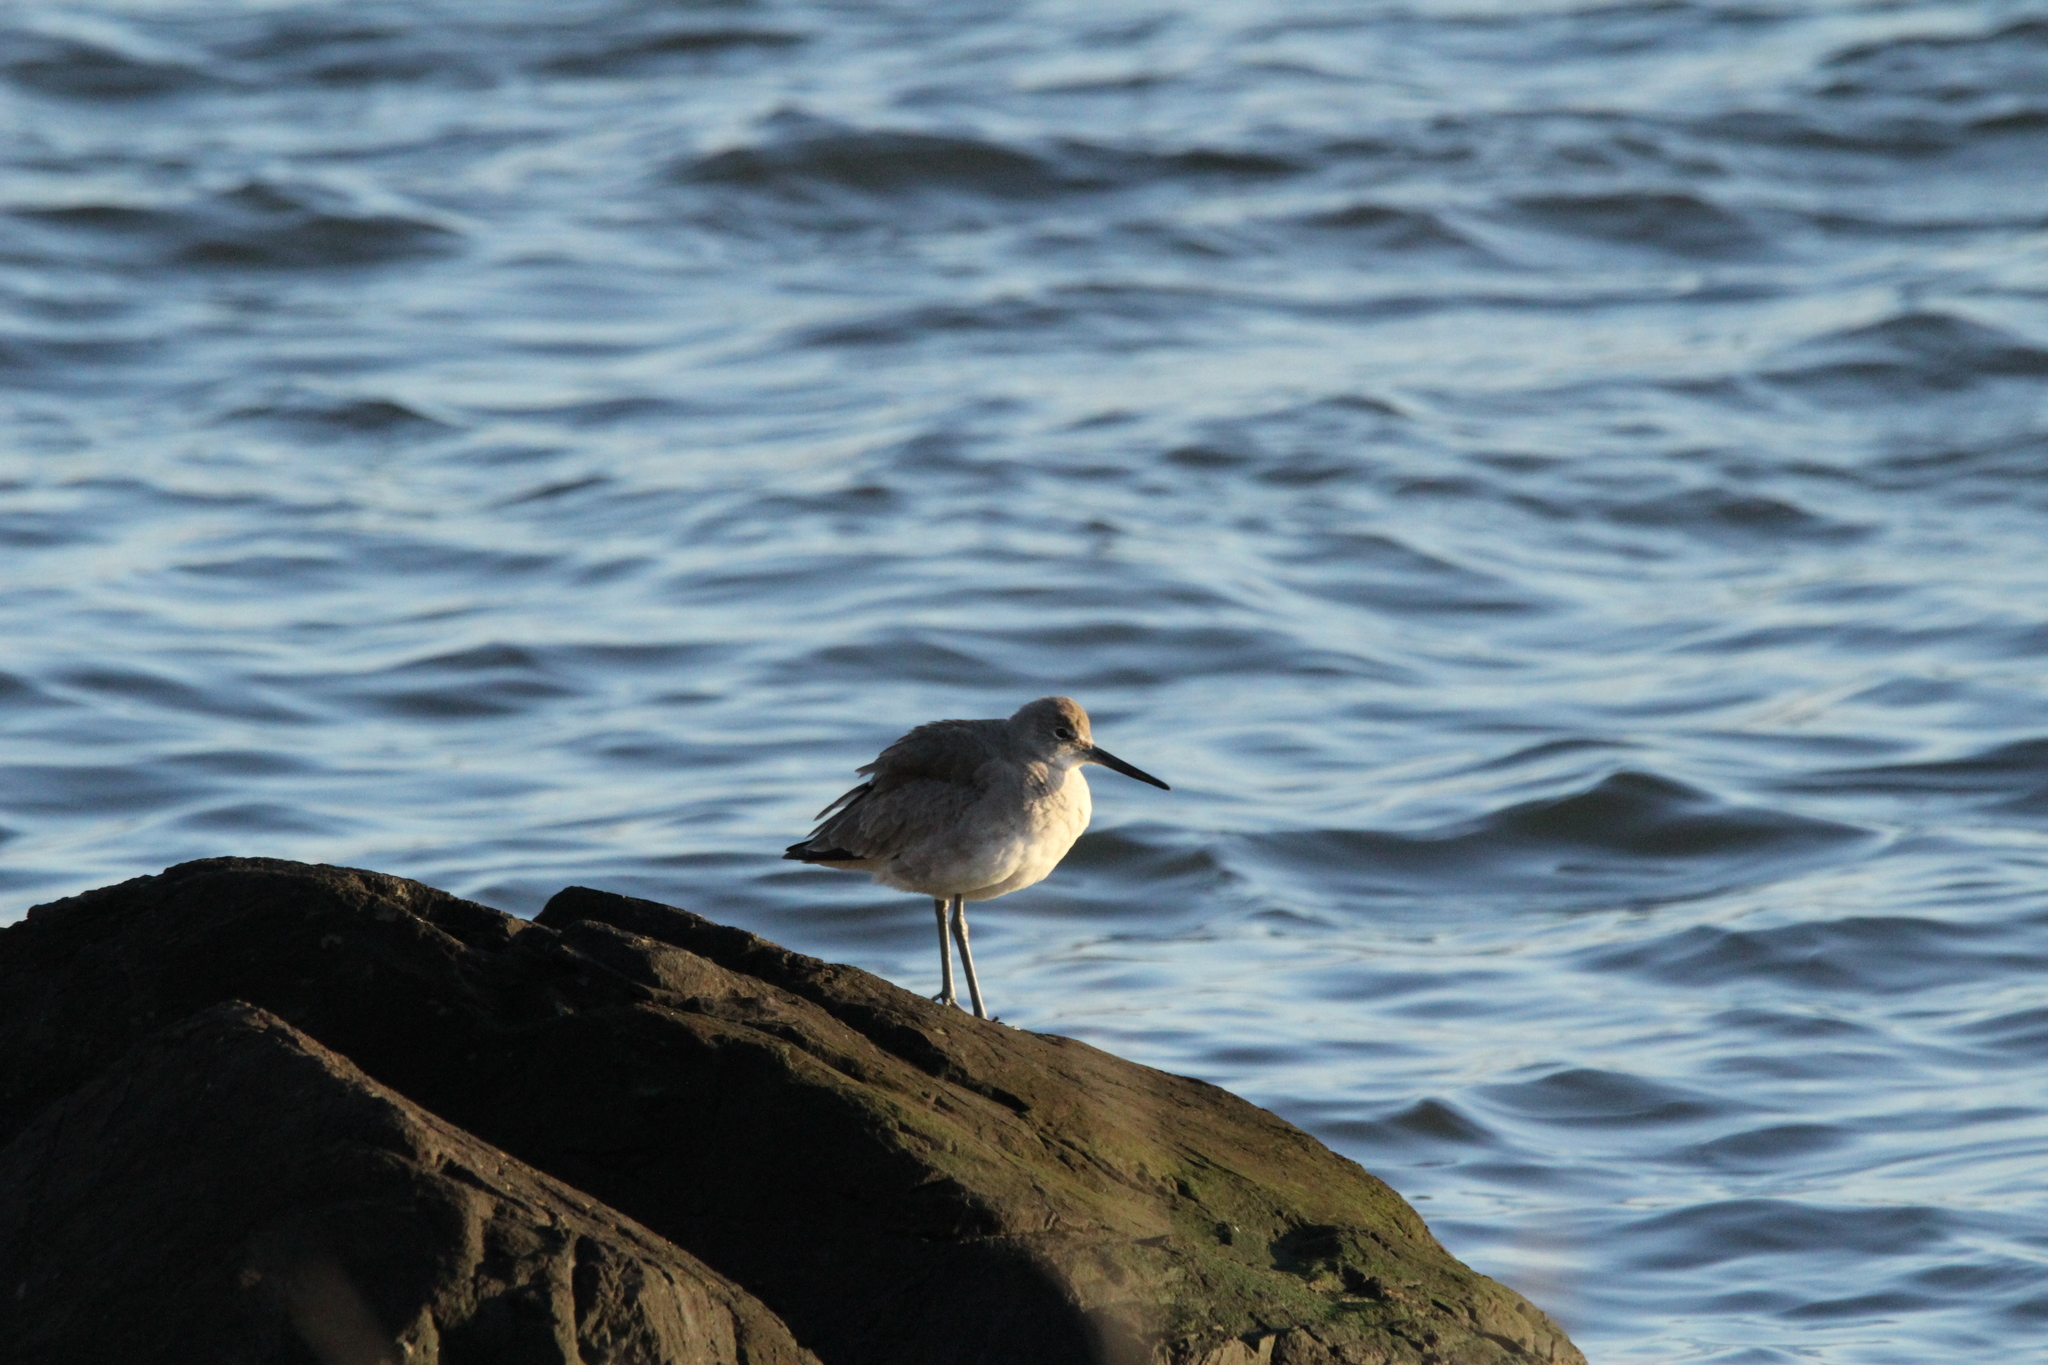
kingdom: Animalia
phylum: Chordata
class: Aves
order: Charadriiformes
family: Scolopacidae
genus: Tringa
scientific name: Tringa semipalmata
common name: Willet
